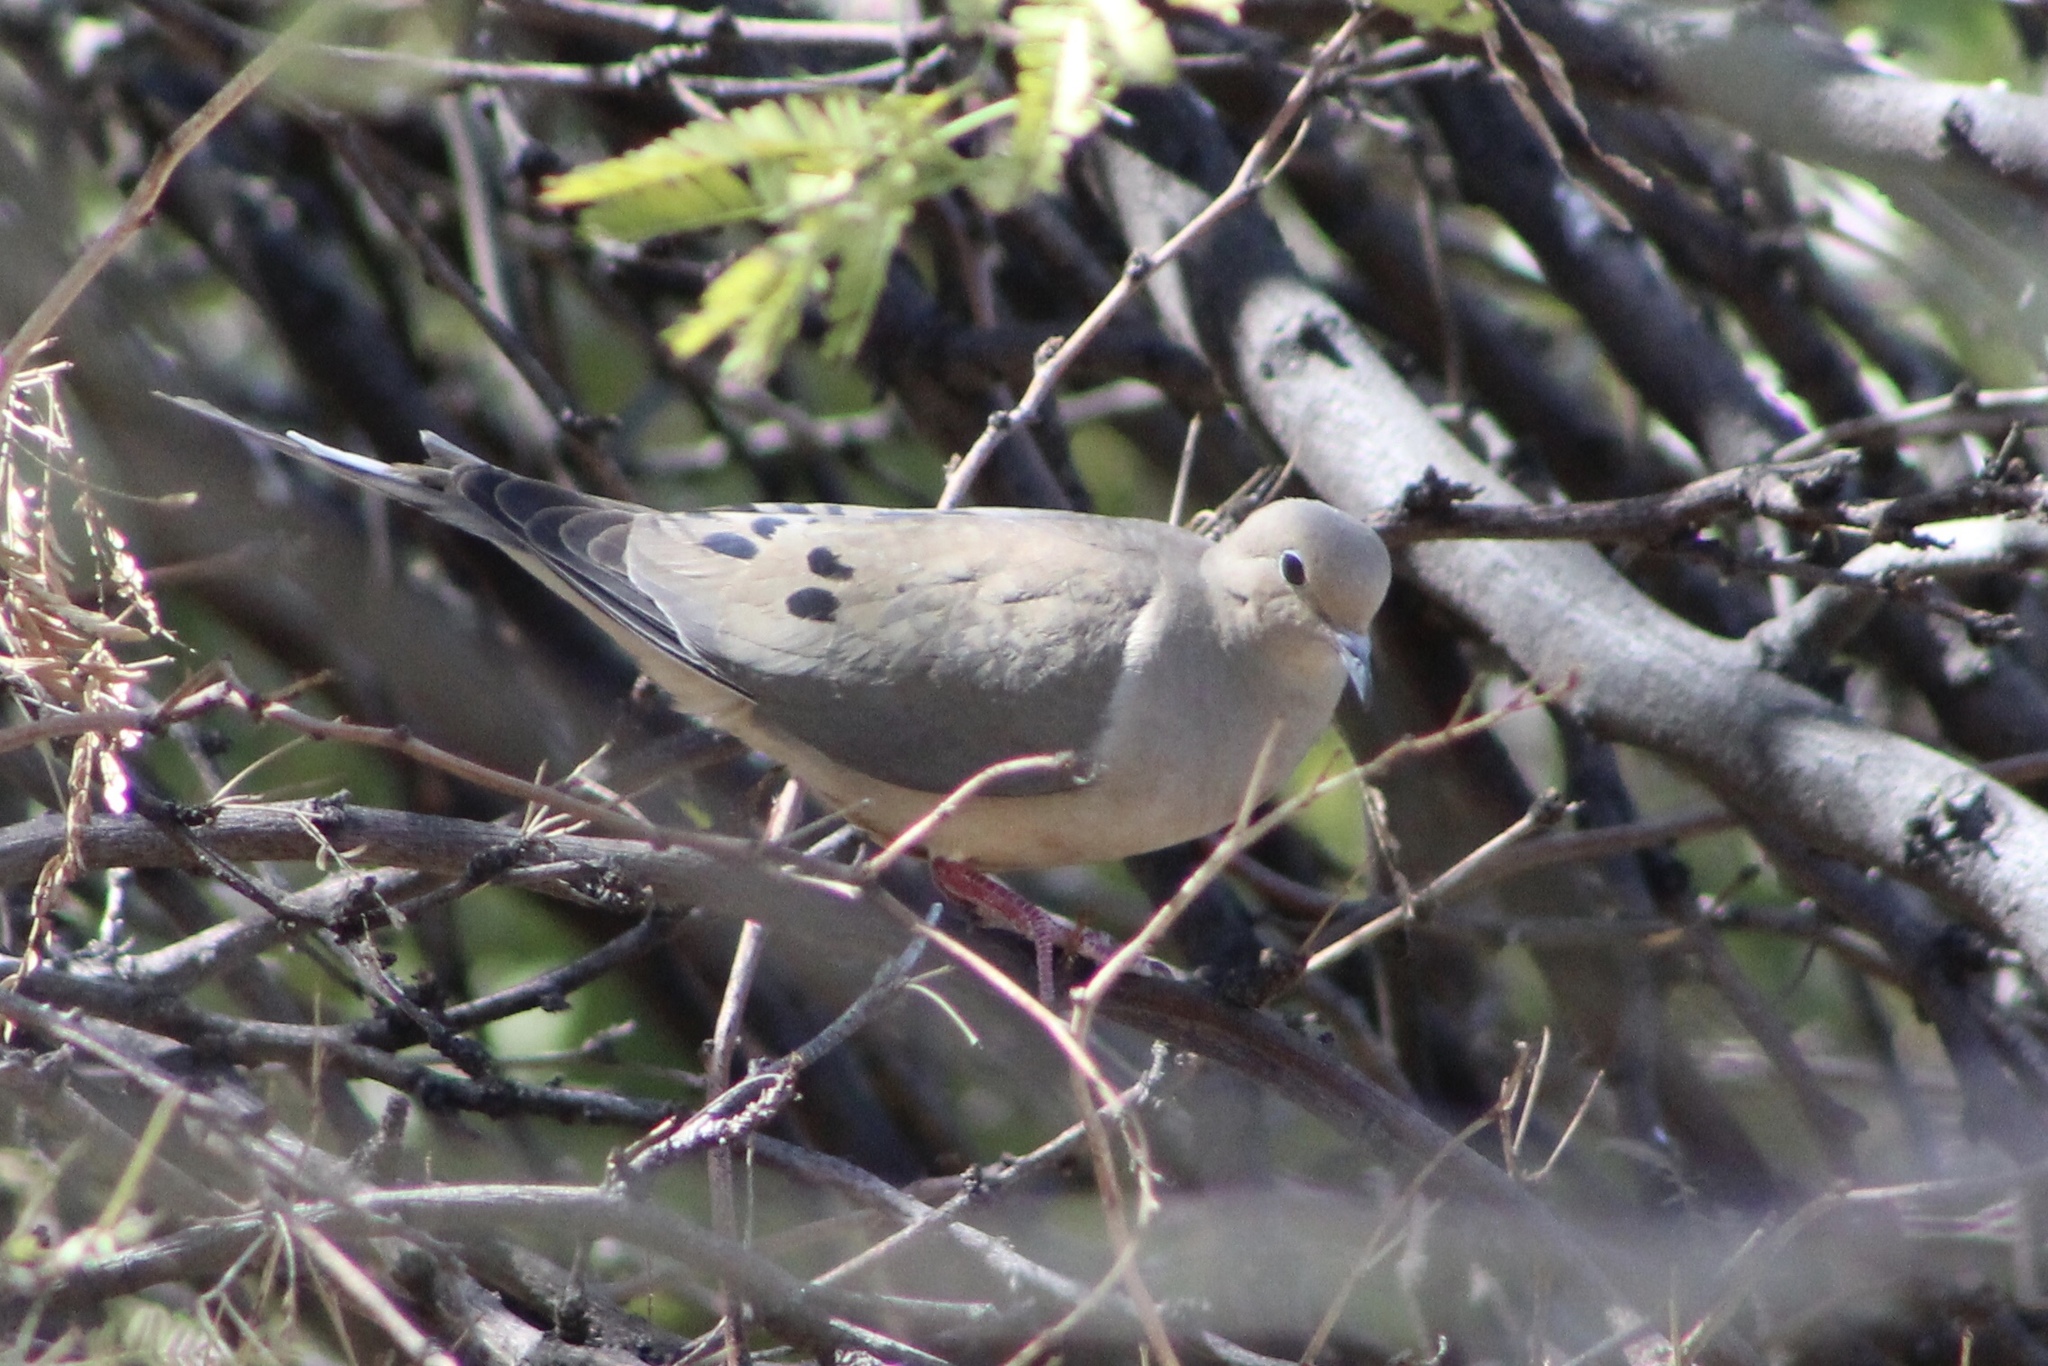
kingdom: Animalia
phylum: Chordata
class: Aves
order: Columbiformes
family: Columbidae
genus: Zenaida
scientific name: Zenaida macroura
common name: Mourning dove
